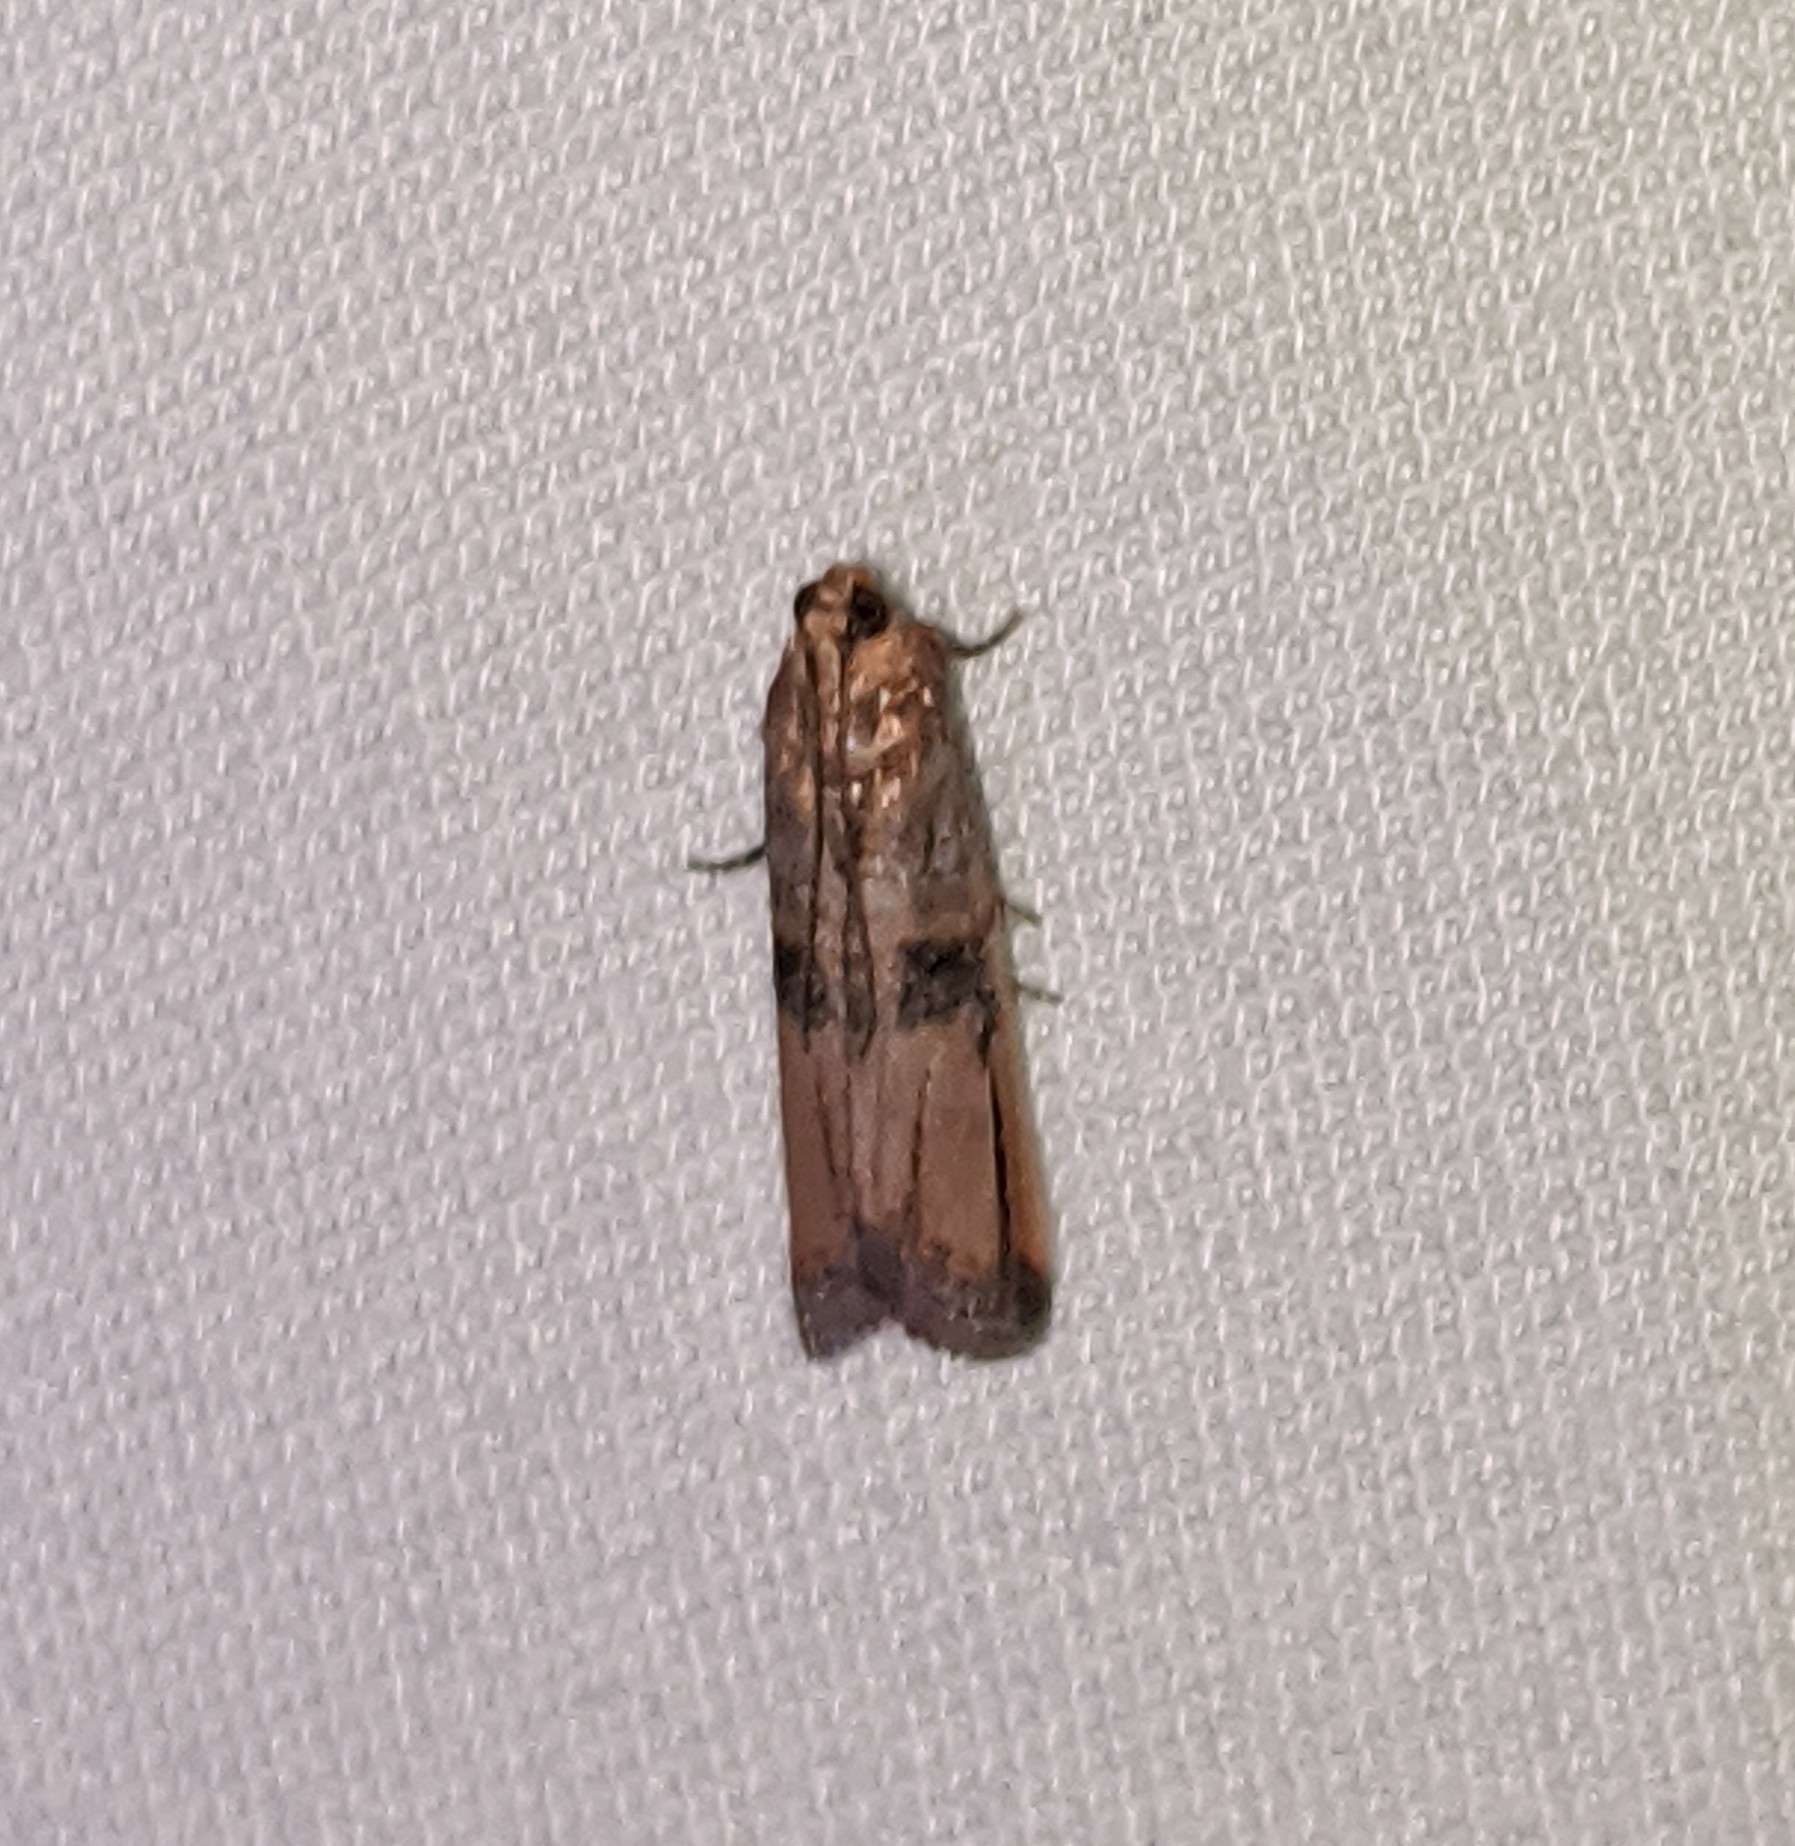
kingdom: Animalia
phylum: Arthropoda
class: Insecta
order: Lepidoptera
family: Pyralidae
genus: Dasypyga
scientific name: Dasypyga alternosquamella
